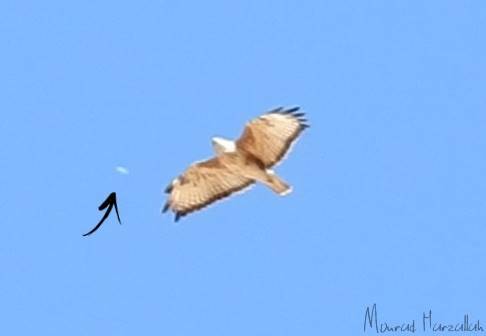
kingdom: Animalia
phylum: Chordata
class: Aves
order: Accipitriformes
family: Accipitridae
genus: Buteo
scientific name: Buteo rufinus
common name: Long-legged buzzard
